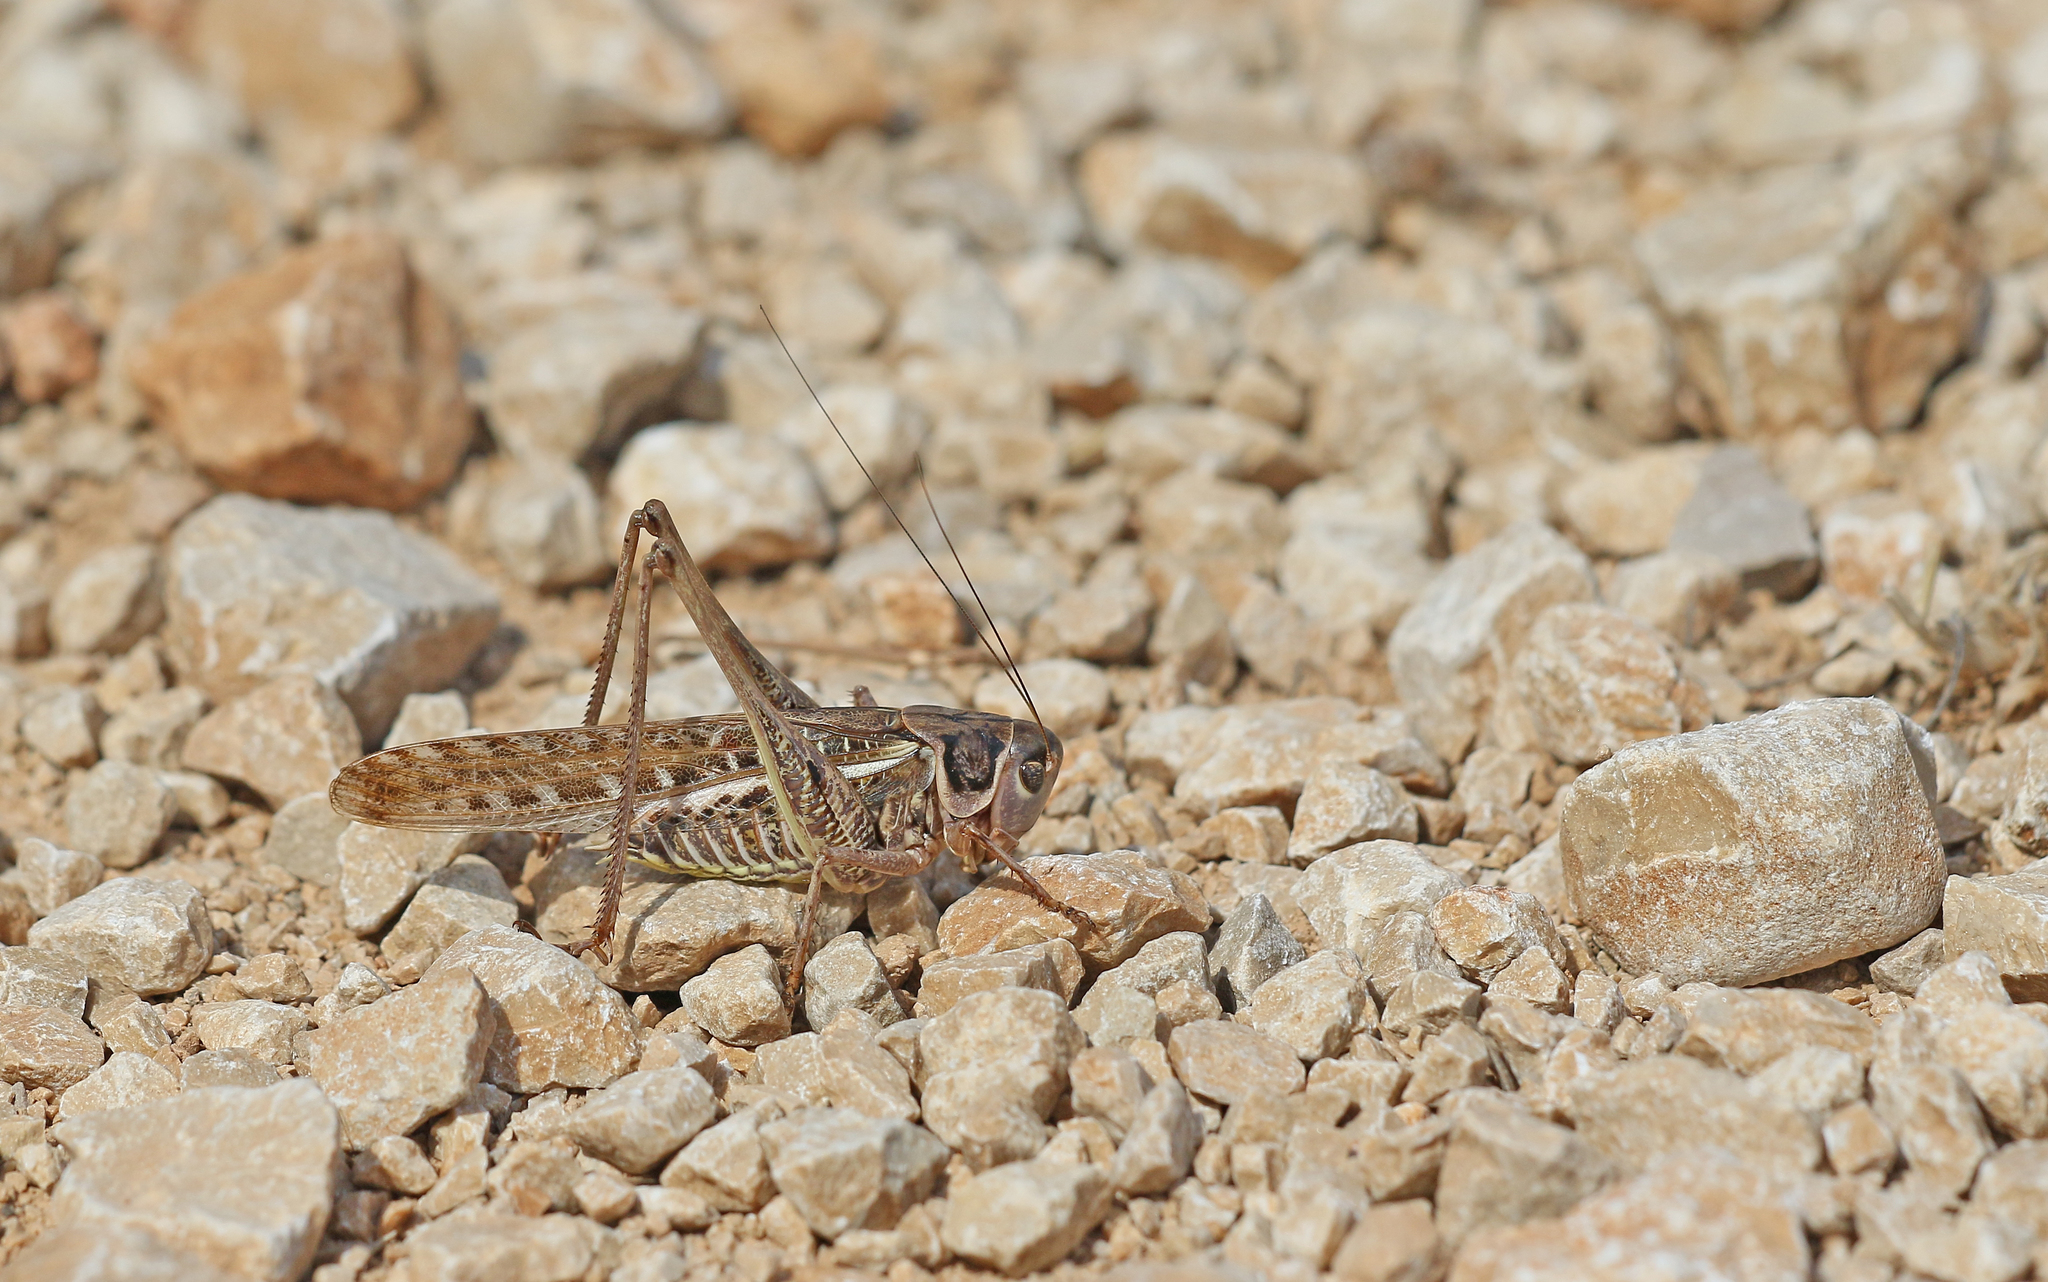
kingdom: Animalia
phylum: Arthropoda
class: Insecta
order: Orthoptera
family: Tettigoniidae
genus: Decticus
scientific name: Decticus albifrons
